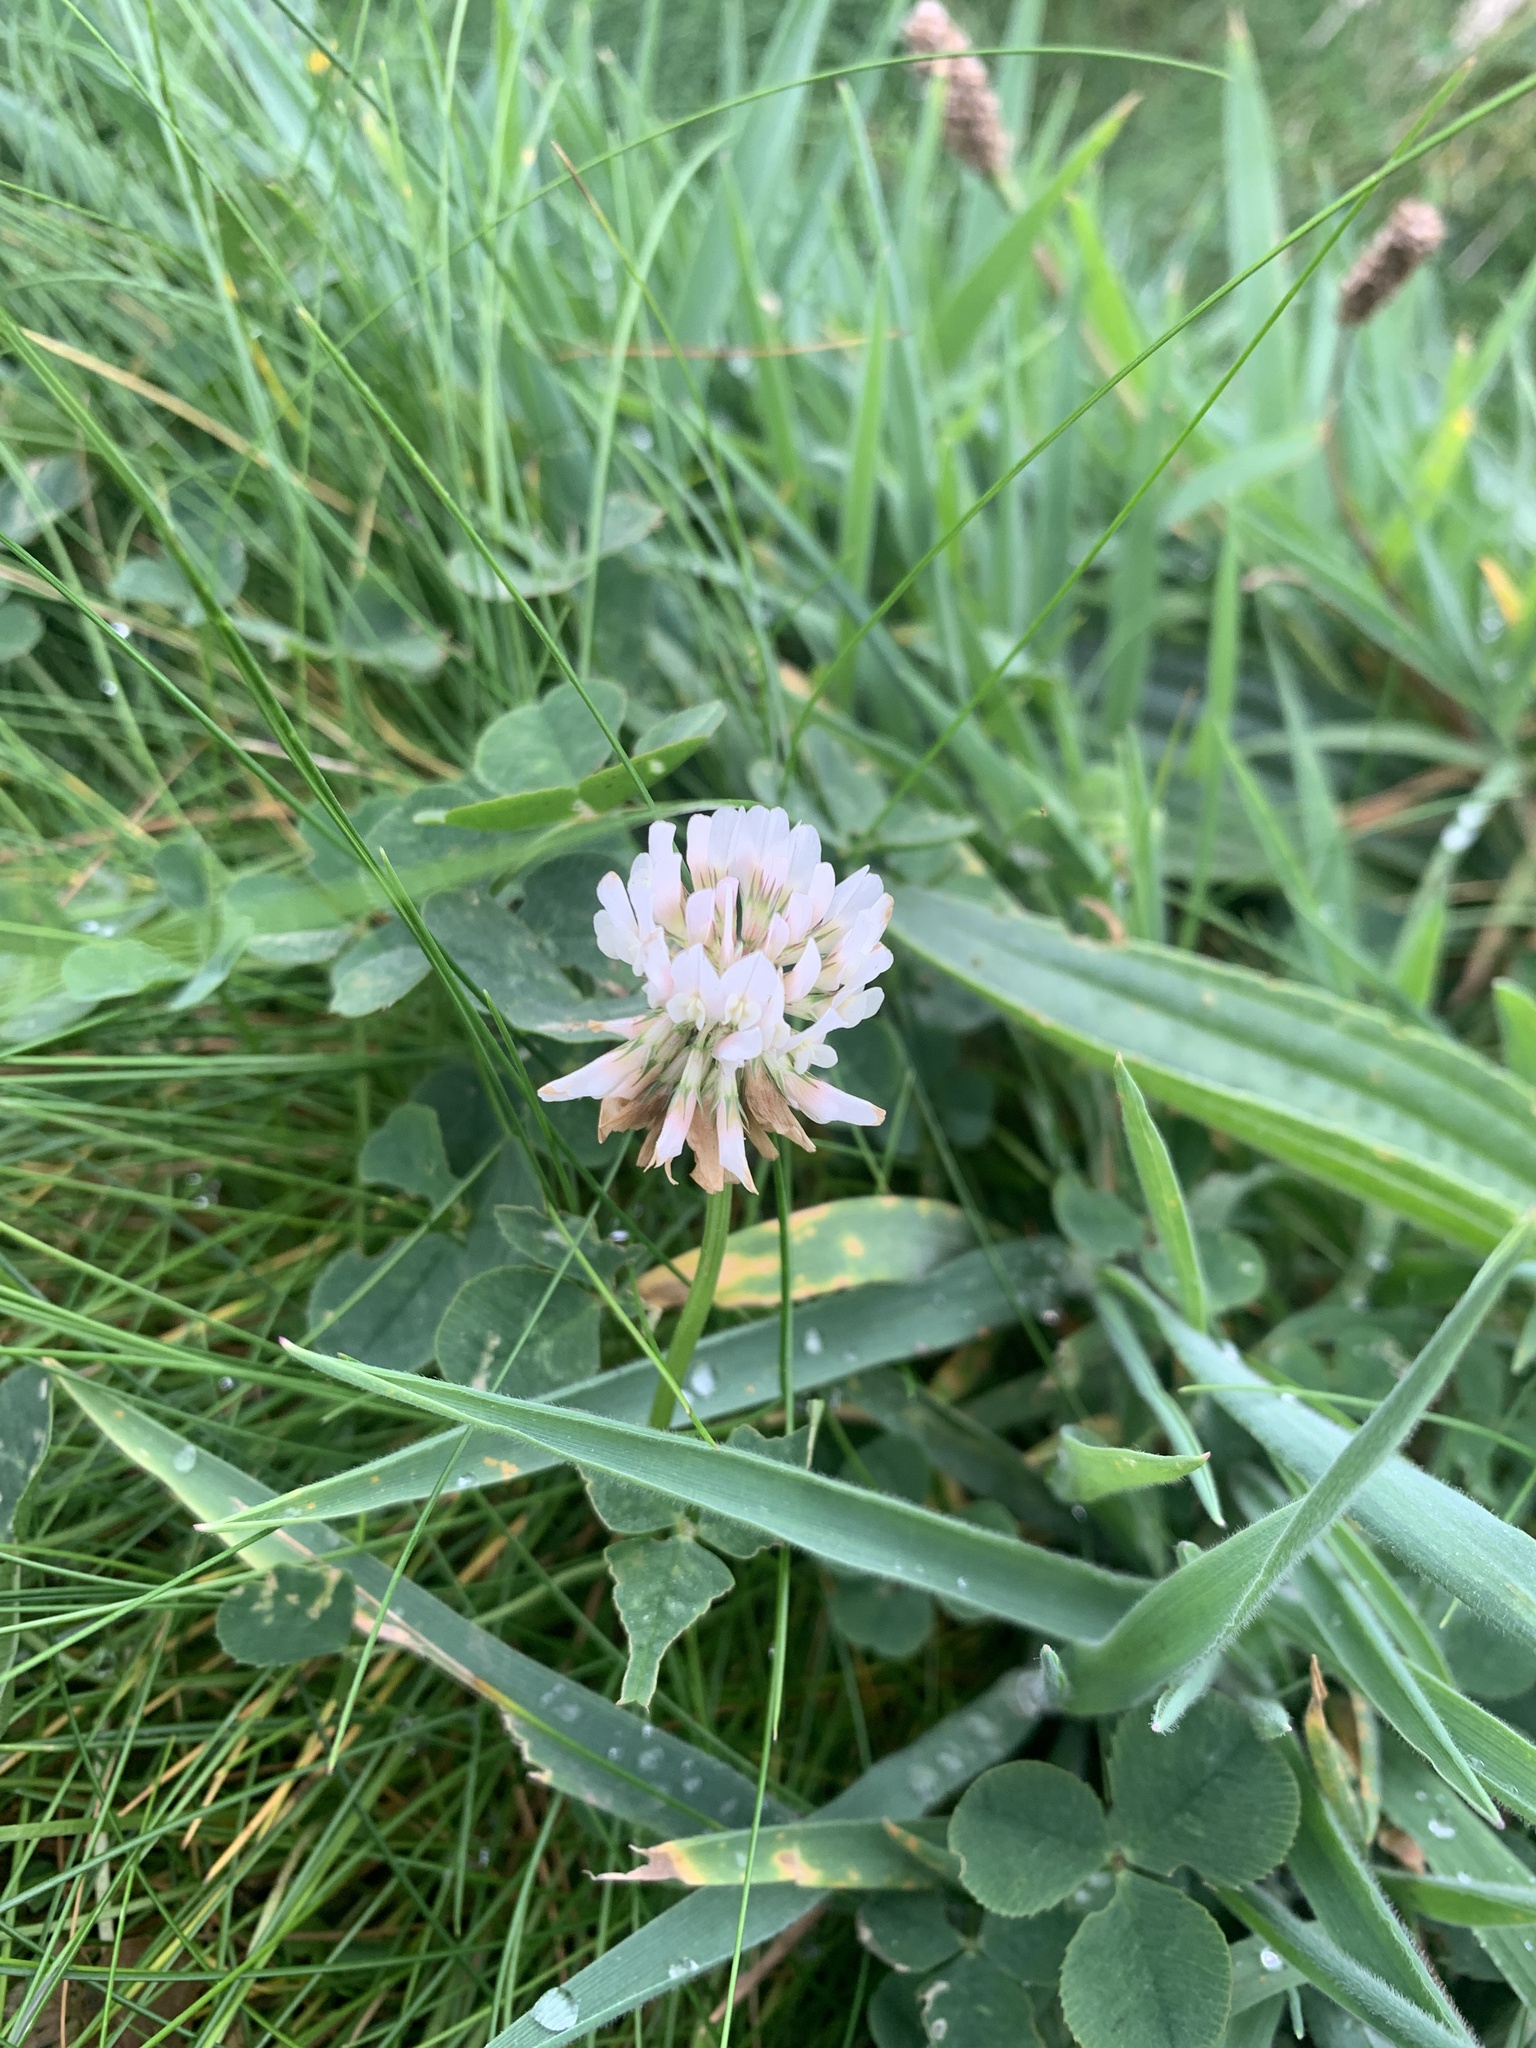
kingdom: Plantae
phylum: Tracheophyta
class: Magnoliopsida
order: Fabales
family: Fabaceae
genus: Trifolium
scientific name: Trifolium repens
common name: White clover
